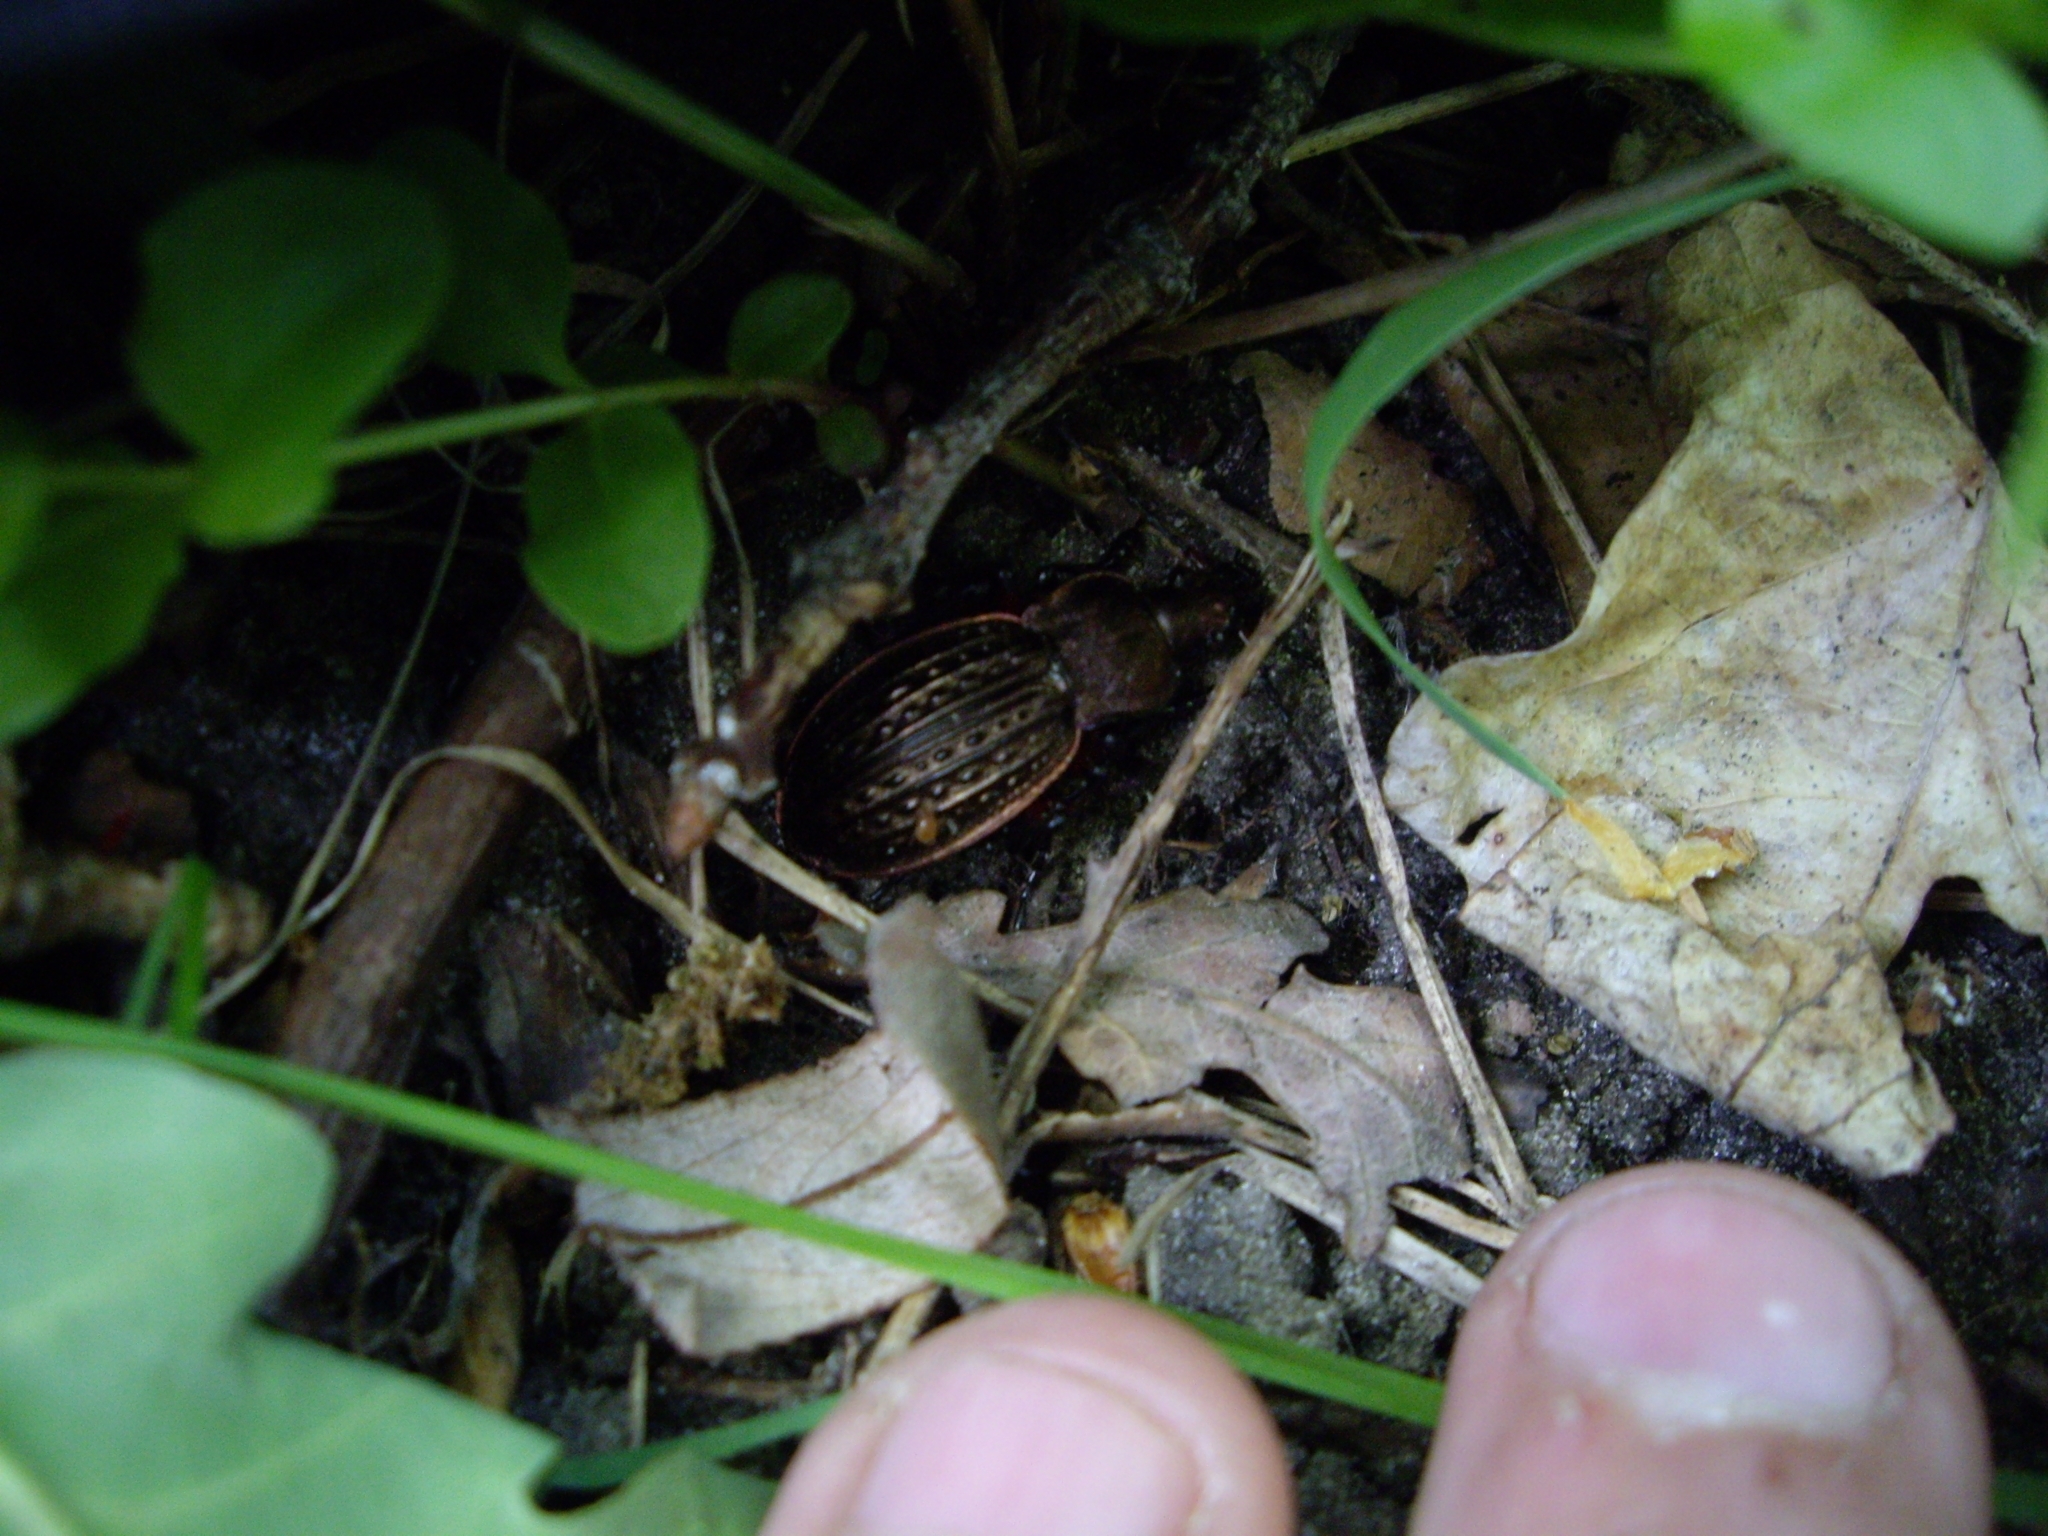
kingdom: Animalia
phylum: Arthropoda
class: Insecta
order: Coleoptera
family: Carabidae
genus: Carabus
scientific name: Carabus cancellatus
